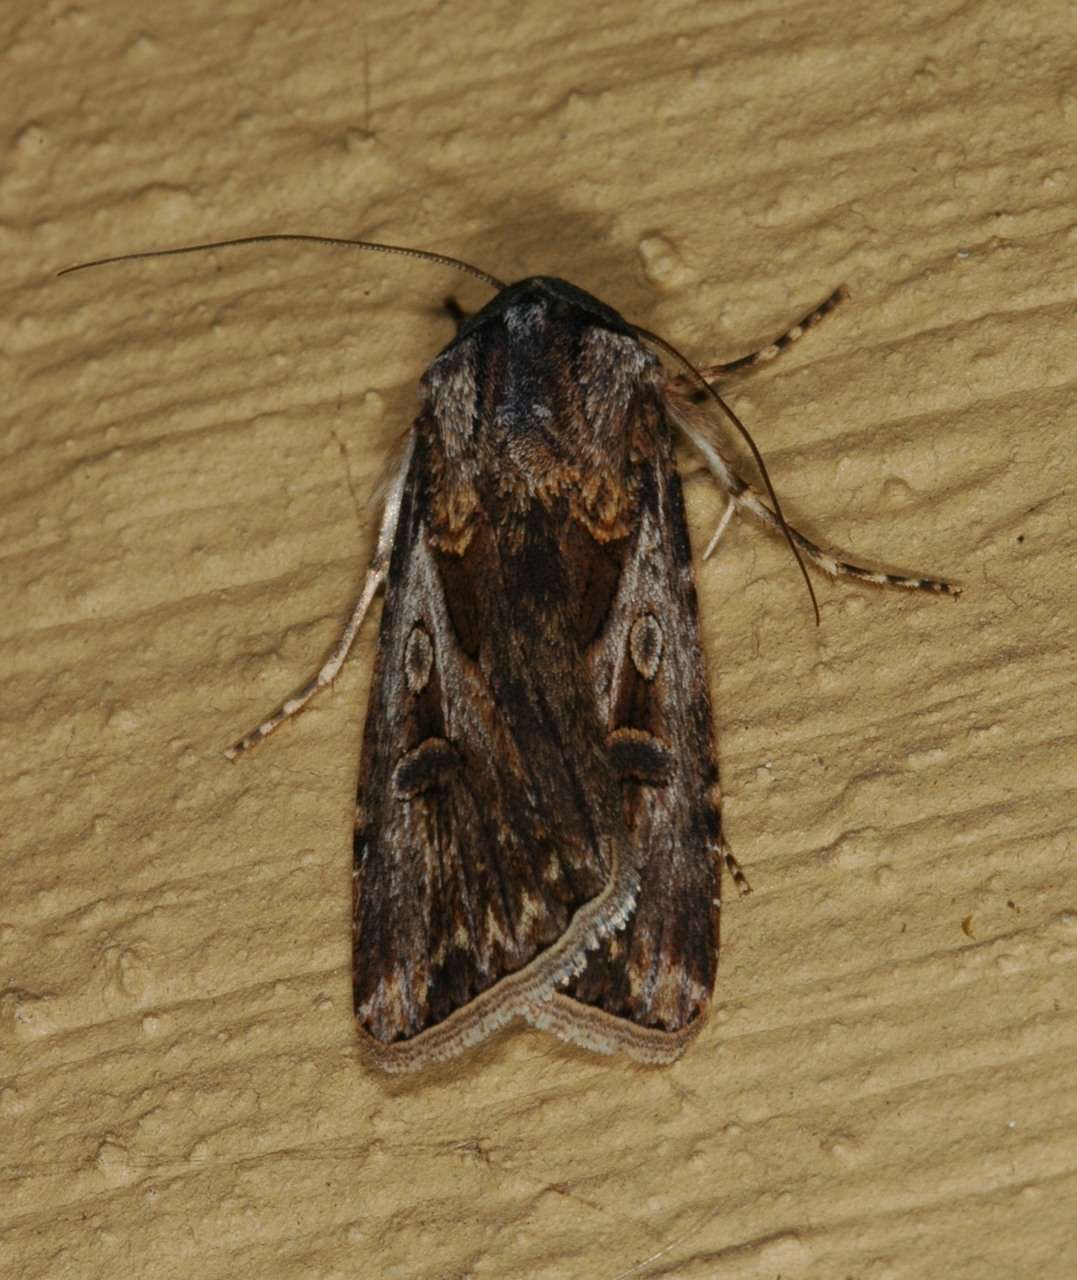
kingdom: Animalia
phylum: Arthropoda
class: Insecta
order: Lepidoptera
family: Noctuidae
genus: Agrotis
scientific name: Agrotis munda
